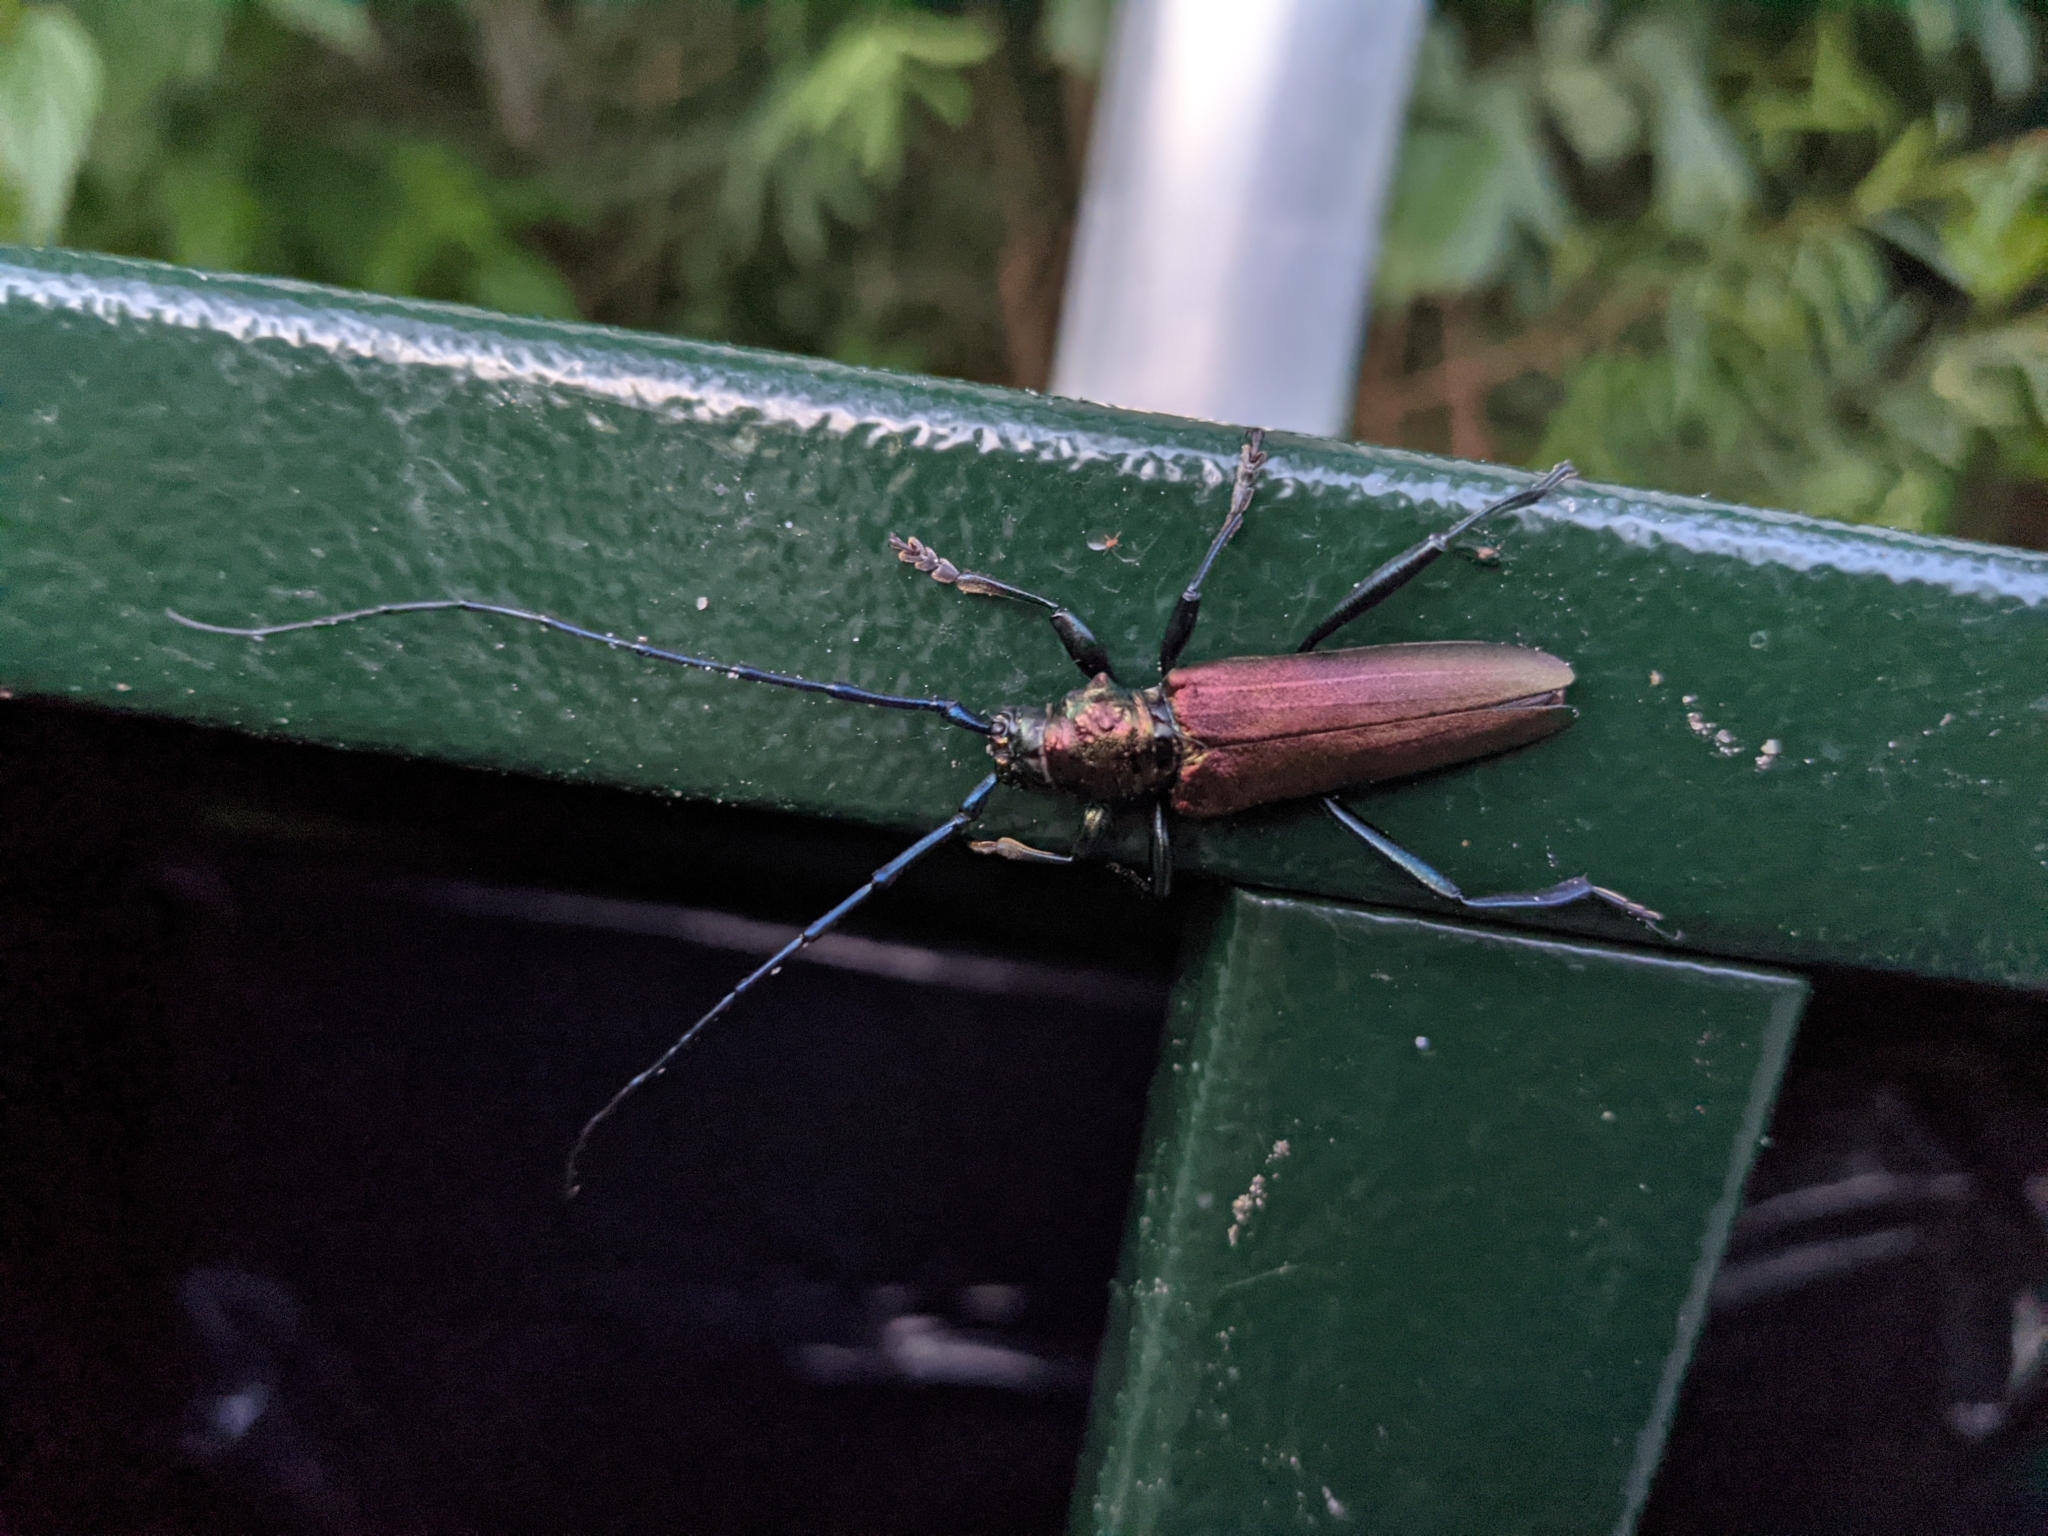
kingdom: Animalia
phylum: Arthropoda
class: Insecta
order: Coleoptera
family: Cerambycidae
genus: Aromia
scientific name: Aromia moschata
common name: Musk beetle
